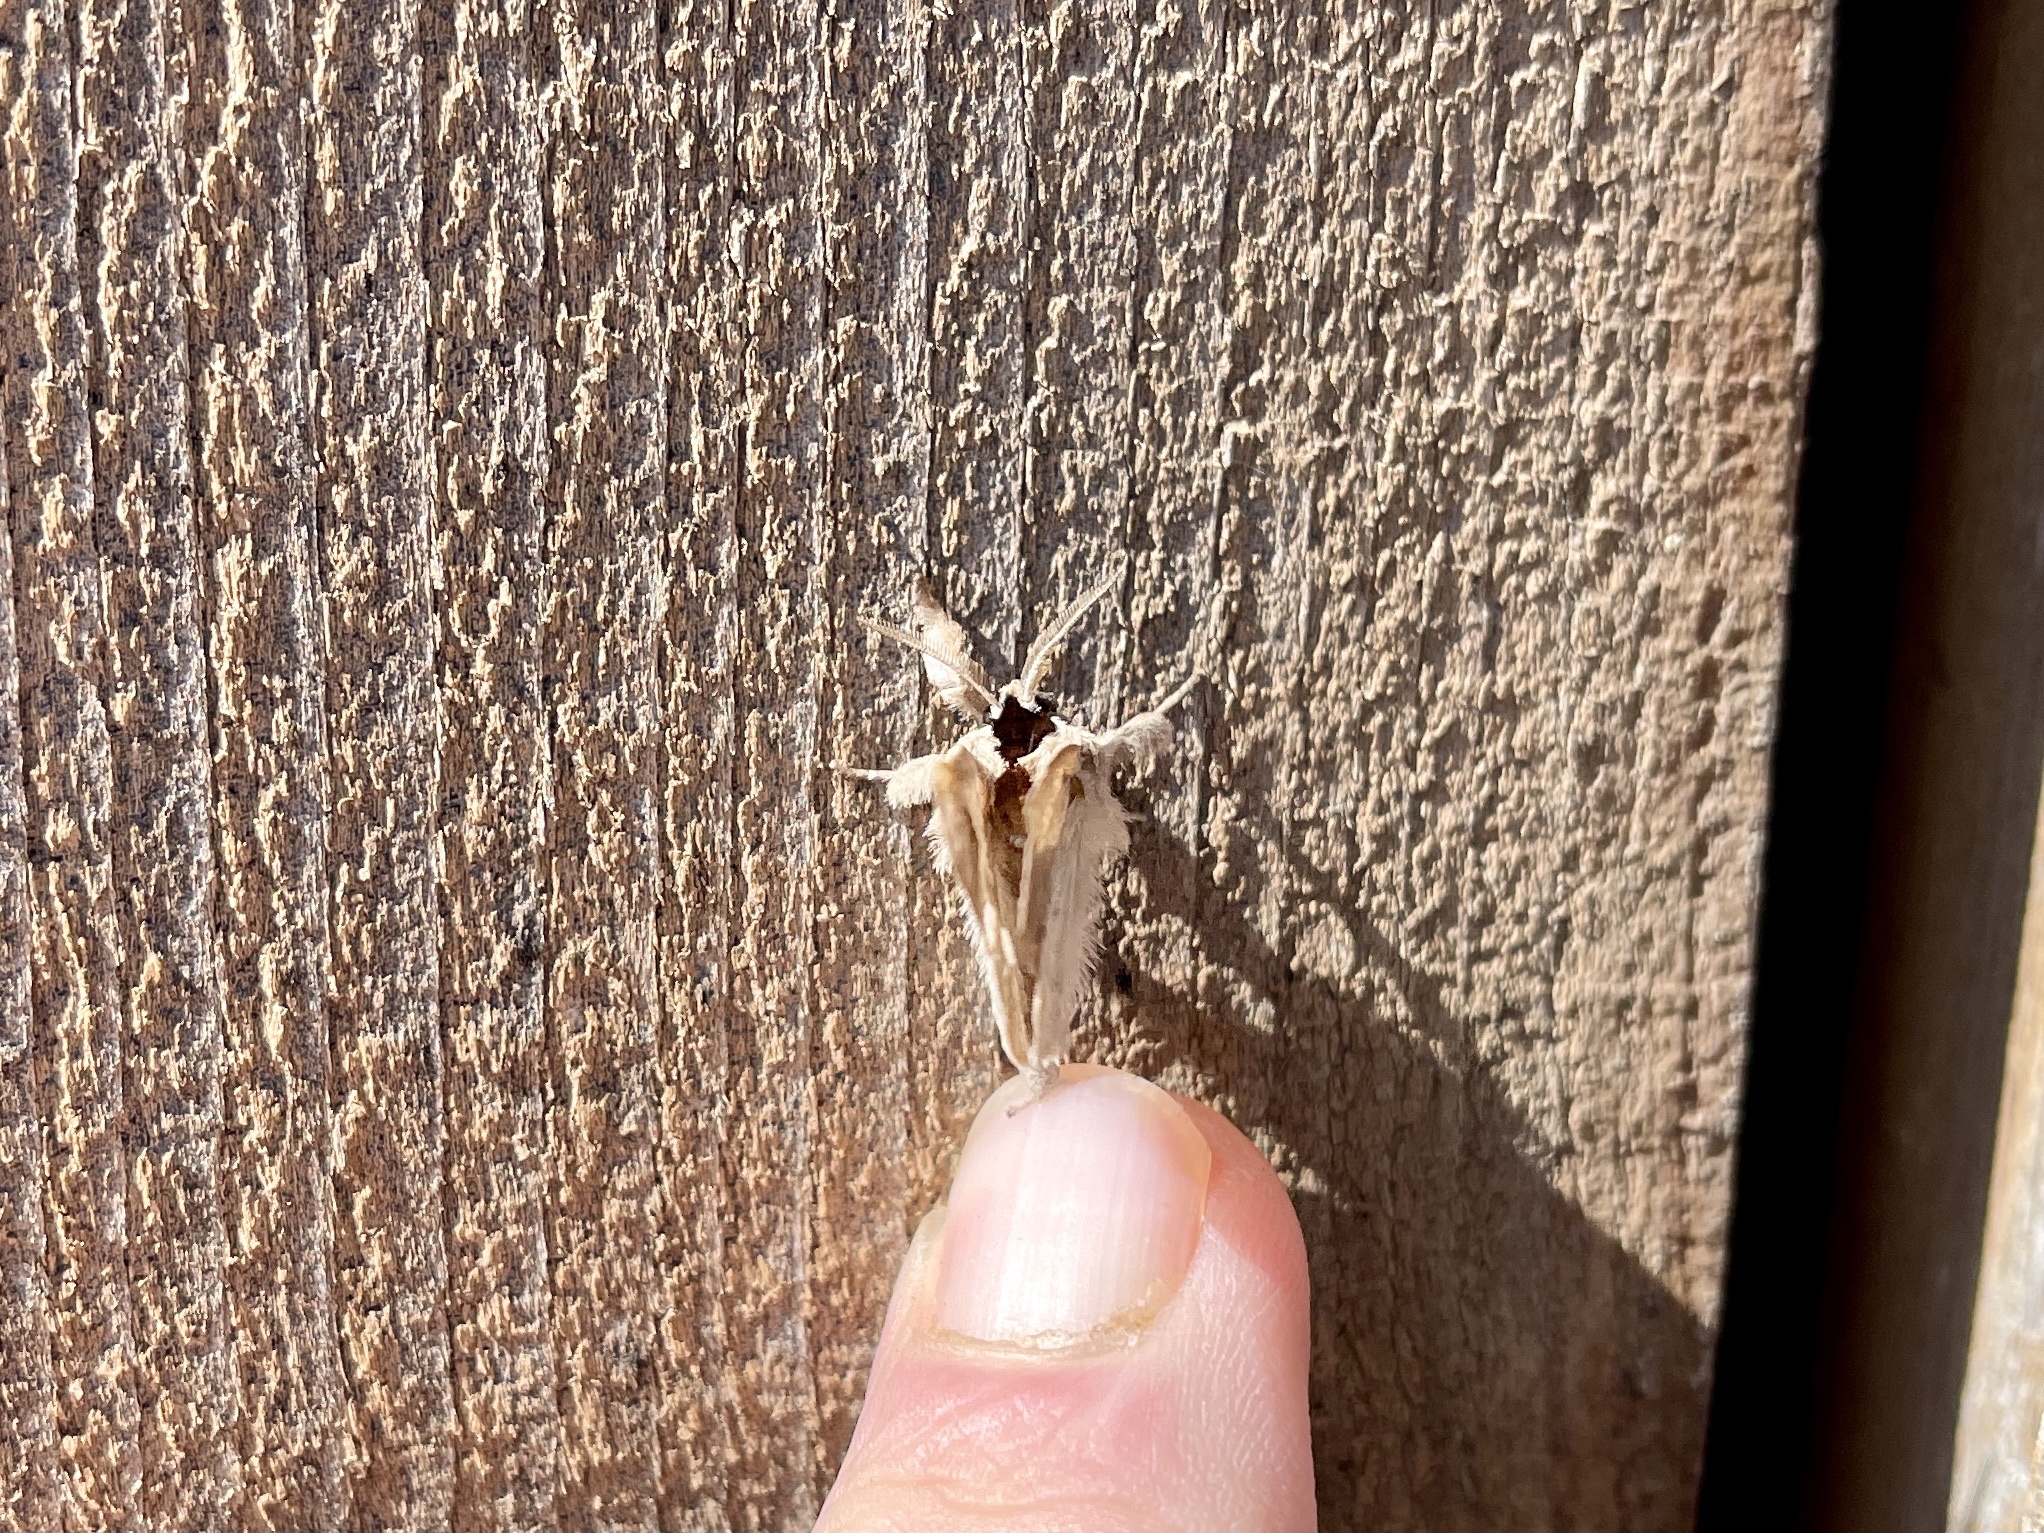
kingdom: Animalia
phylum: Arthropoda
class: Insecta
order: Lepidoptera
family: Notodontidae
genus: Clostera
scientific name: Clostera albosigma
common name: Sigmoid prominent
